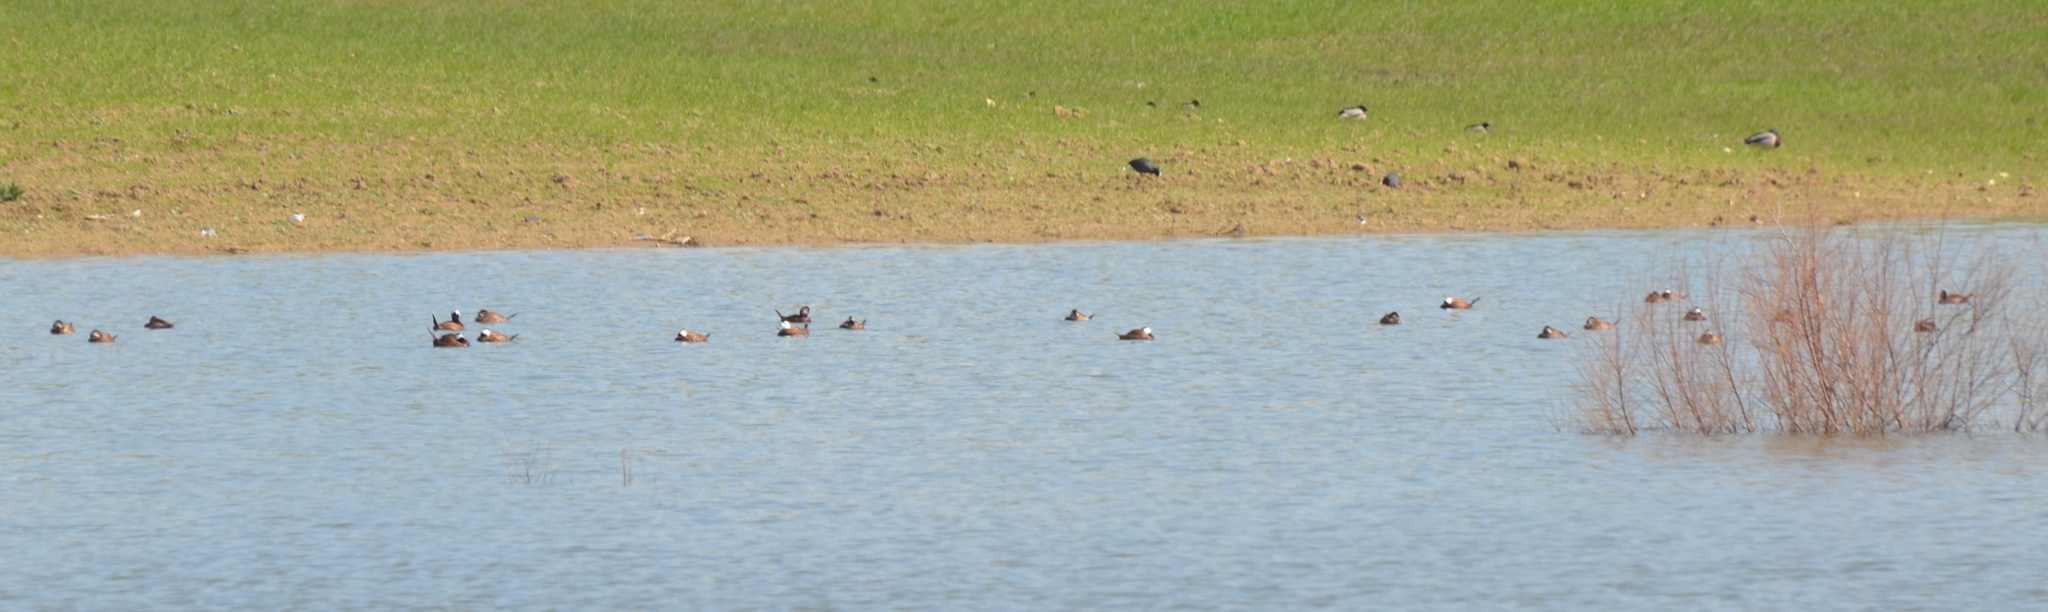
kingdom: Animalia
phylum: Chordata
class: Aves
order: Anseriformes
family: Anatidae
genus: Oxyura
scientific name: Oxyura leucocephala
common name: White-headed duck
